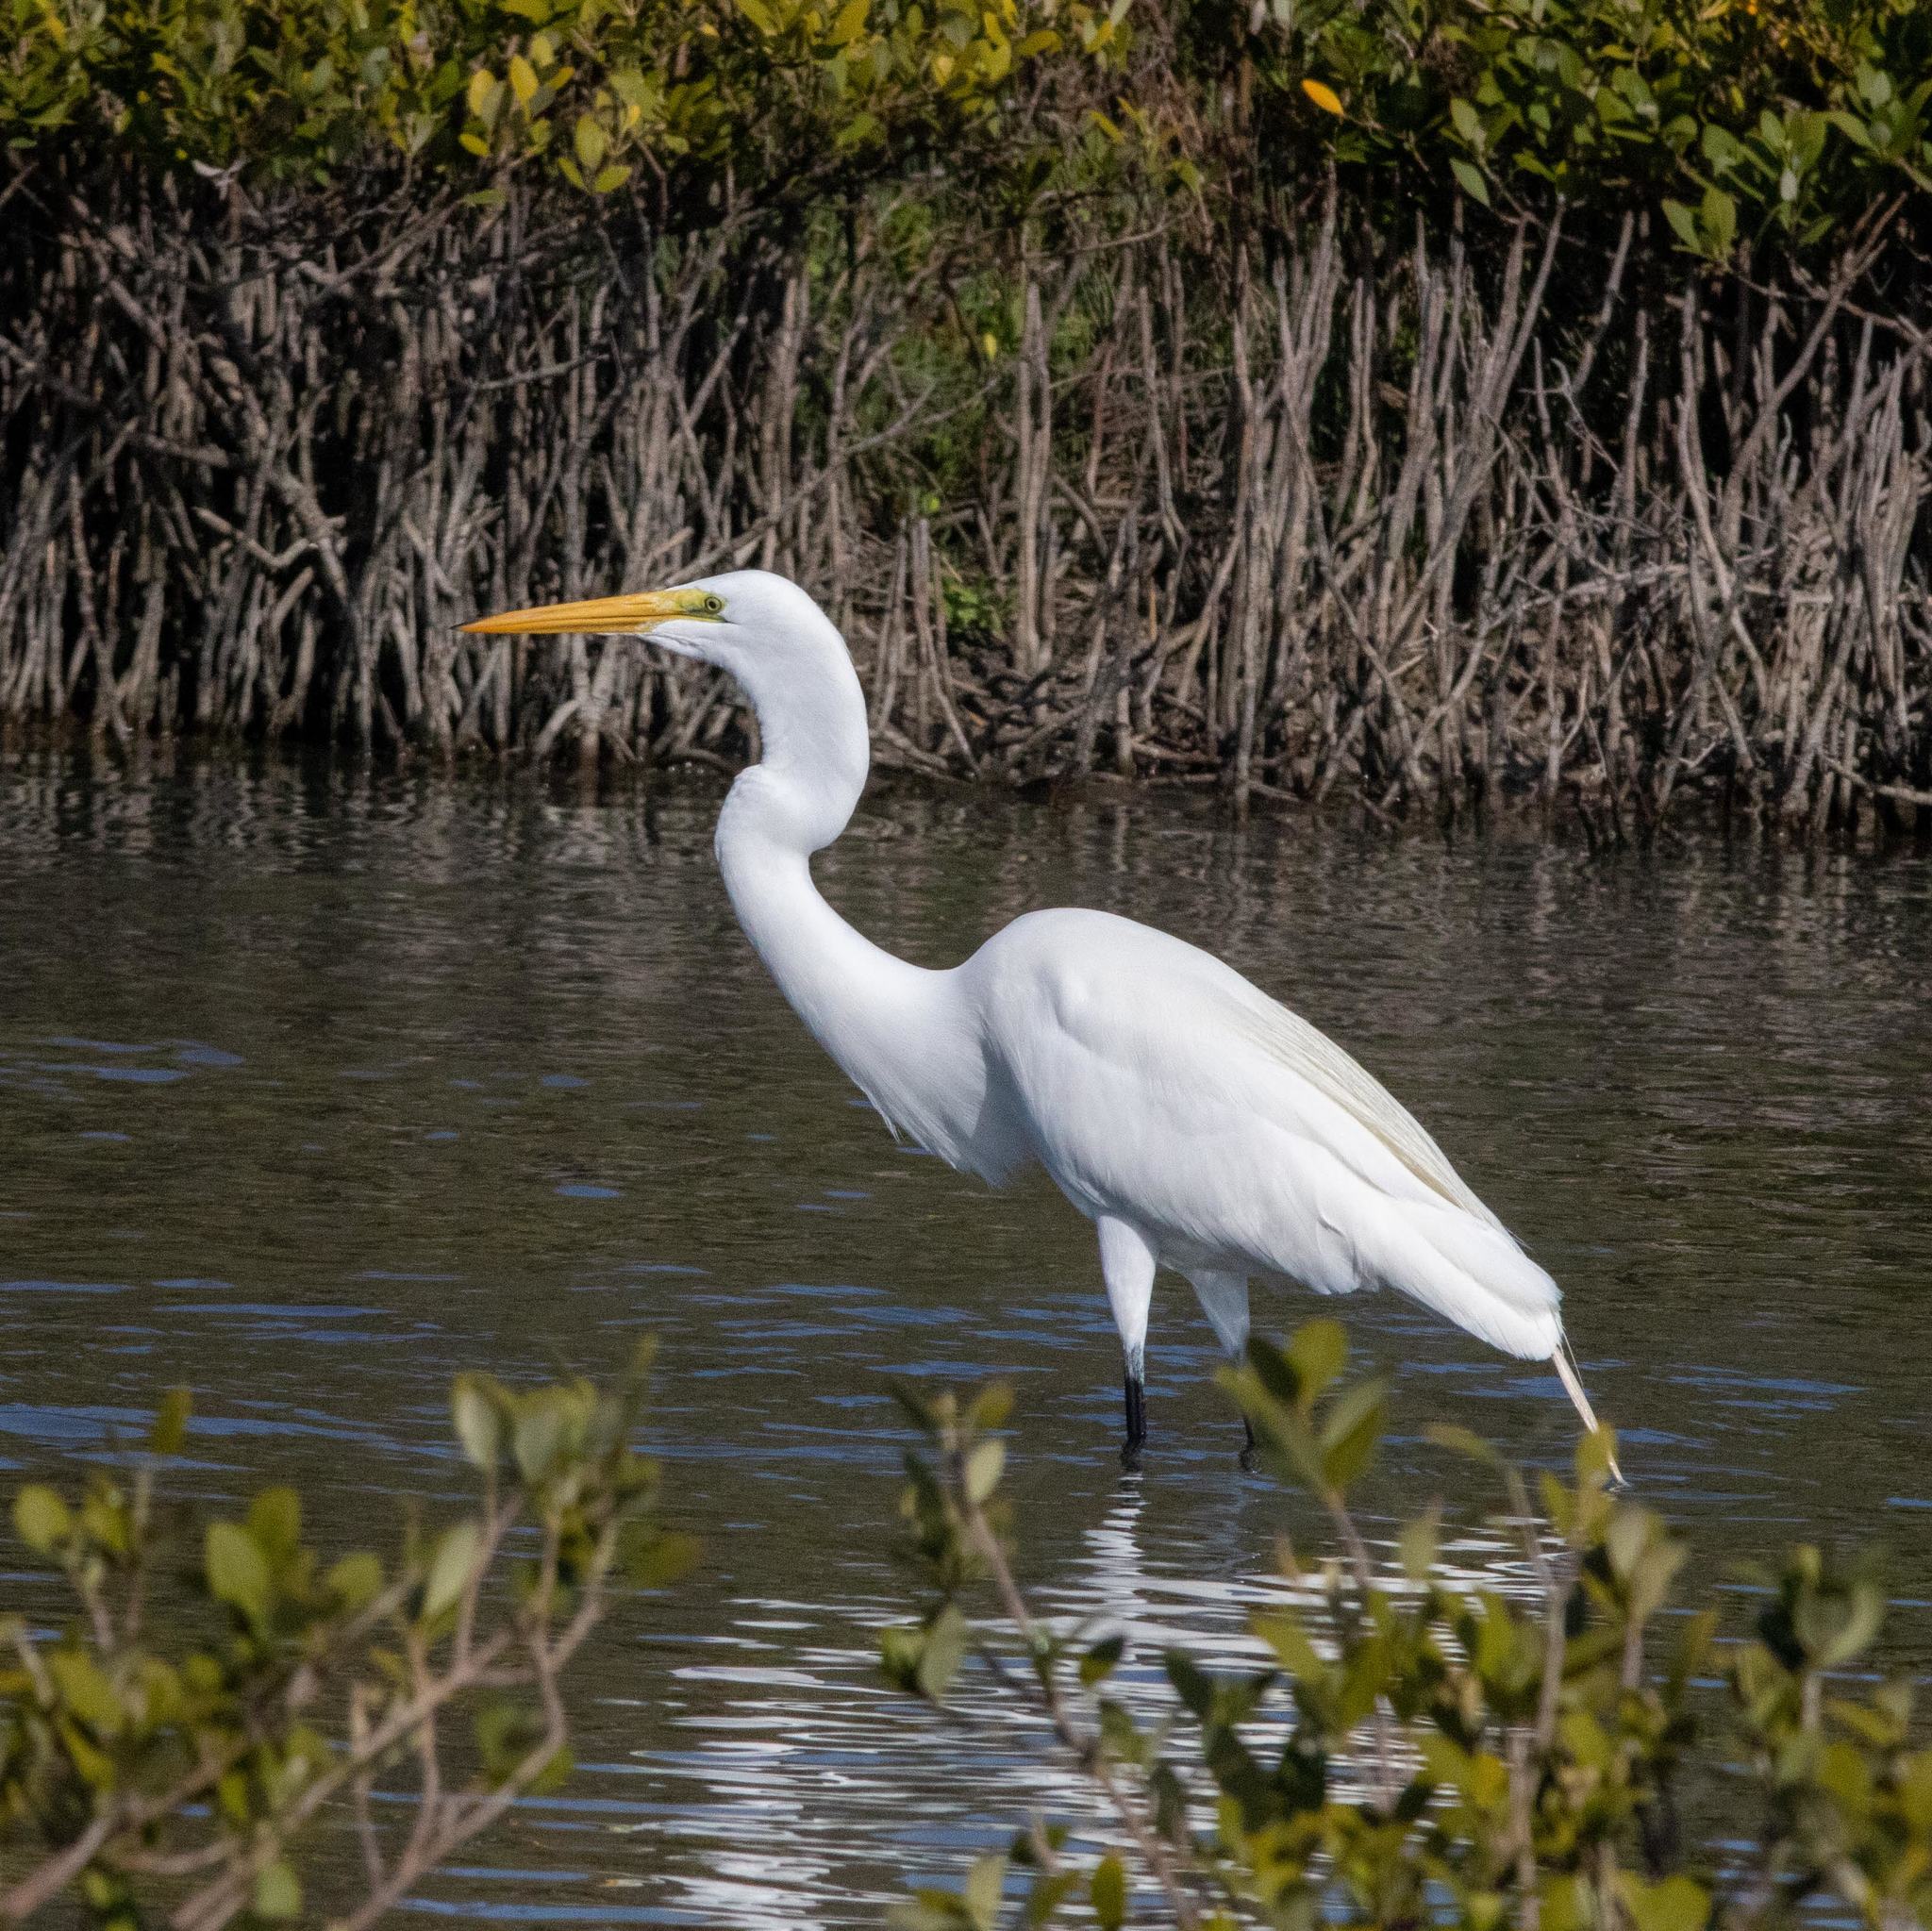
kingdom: Animalia
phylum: Chordata
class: Aves
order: Pelecaniformes
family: Ardeidae
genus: Ardea
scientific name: Ardea alba
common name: Great egret
